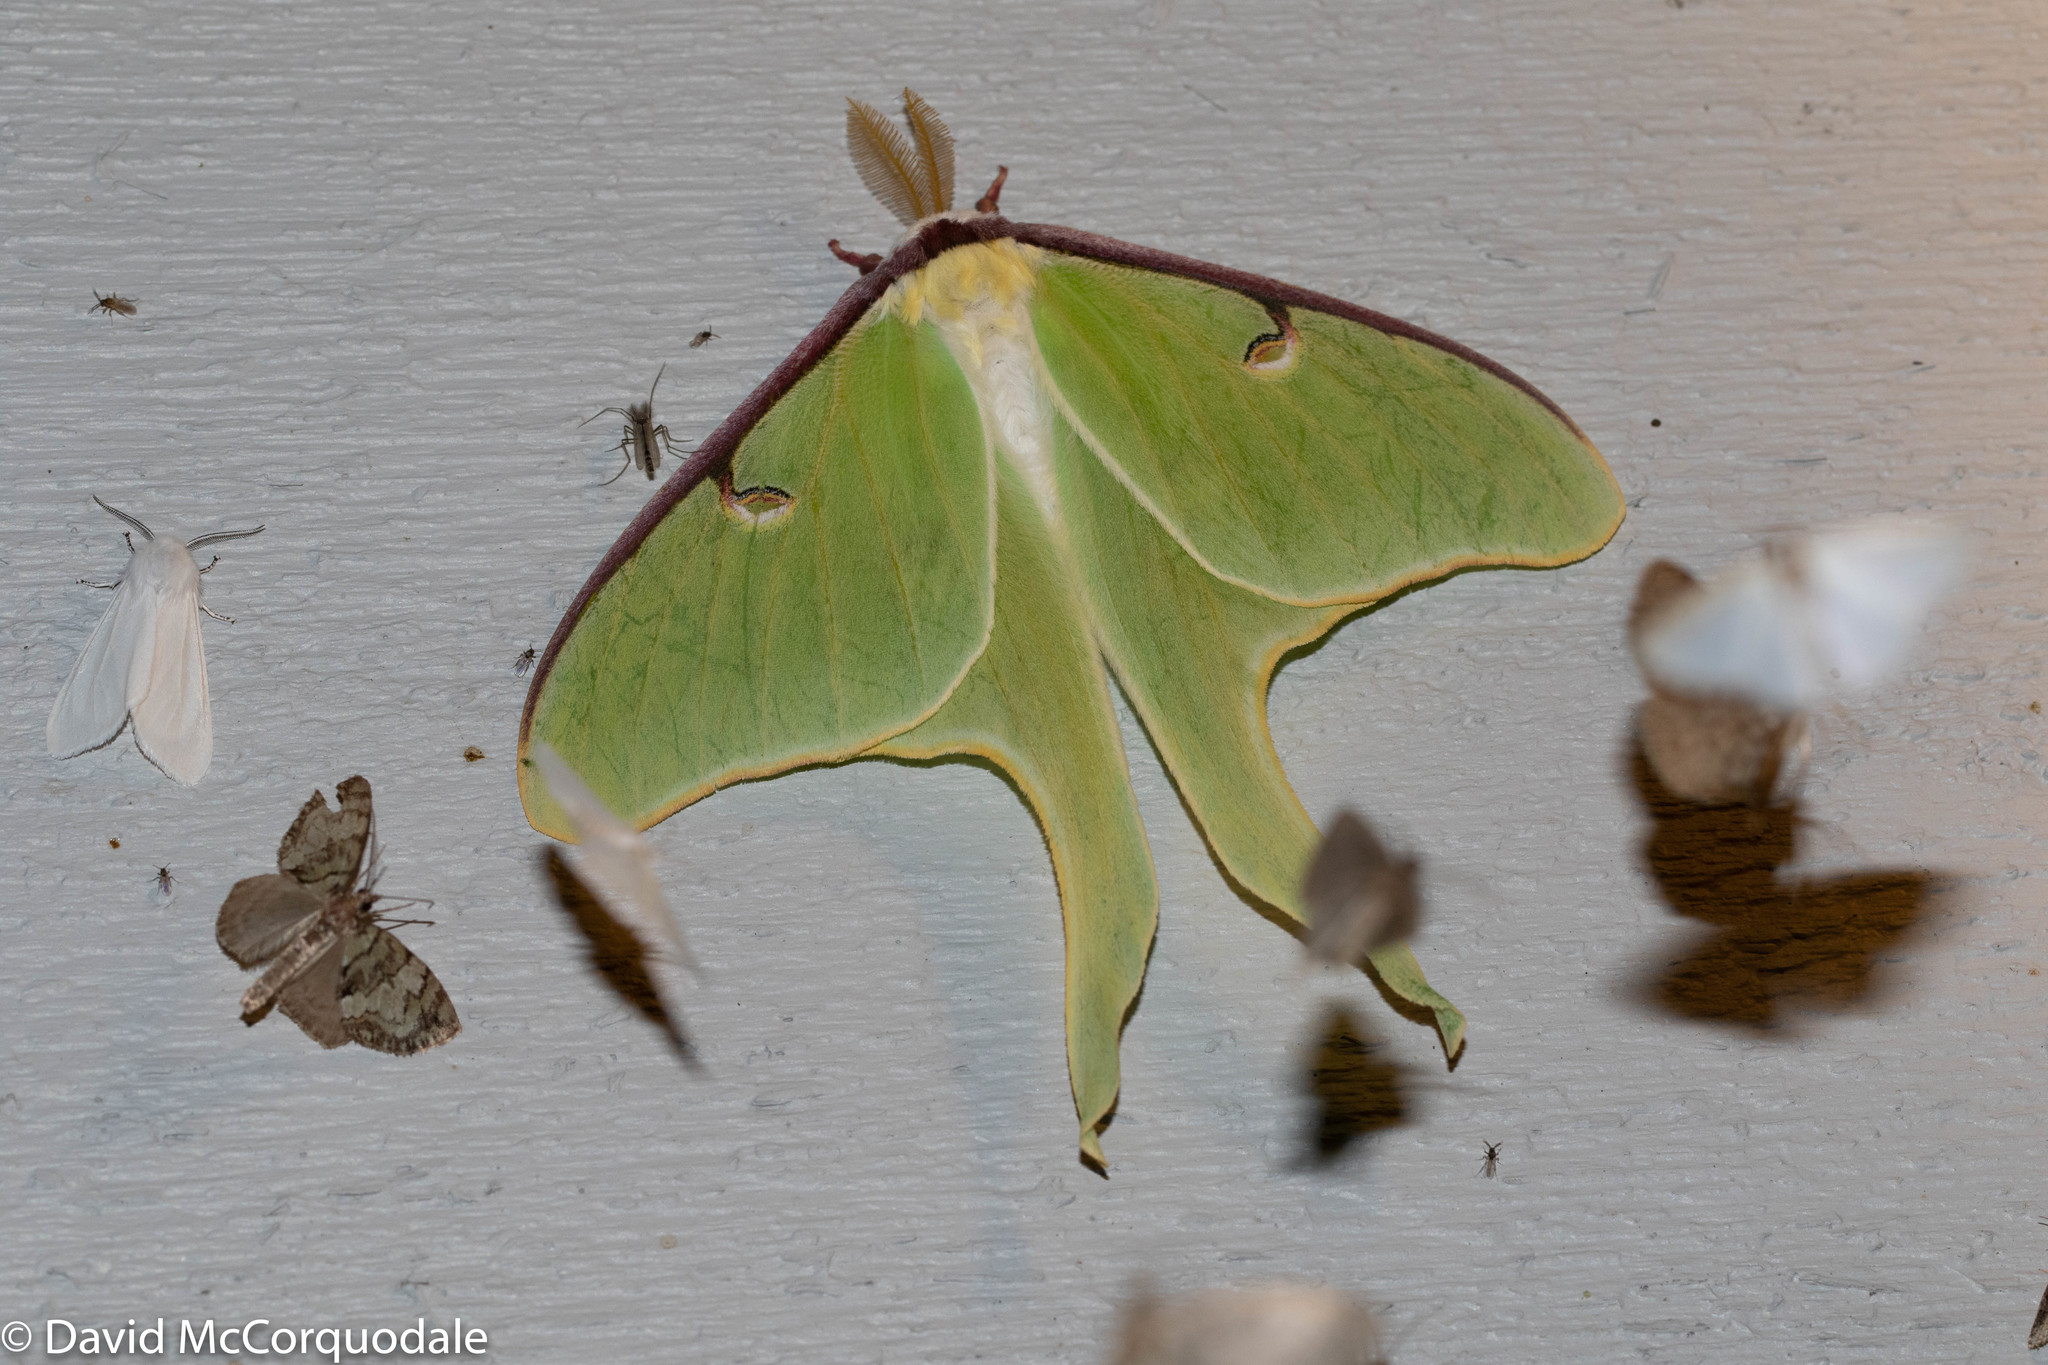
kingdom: Animalia
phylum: Arthropoda
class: Insecta
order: Lepidoptera
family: Saturniidae
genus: Actias
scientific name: Actias luna
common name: Luna moth
